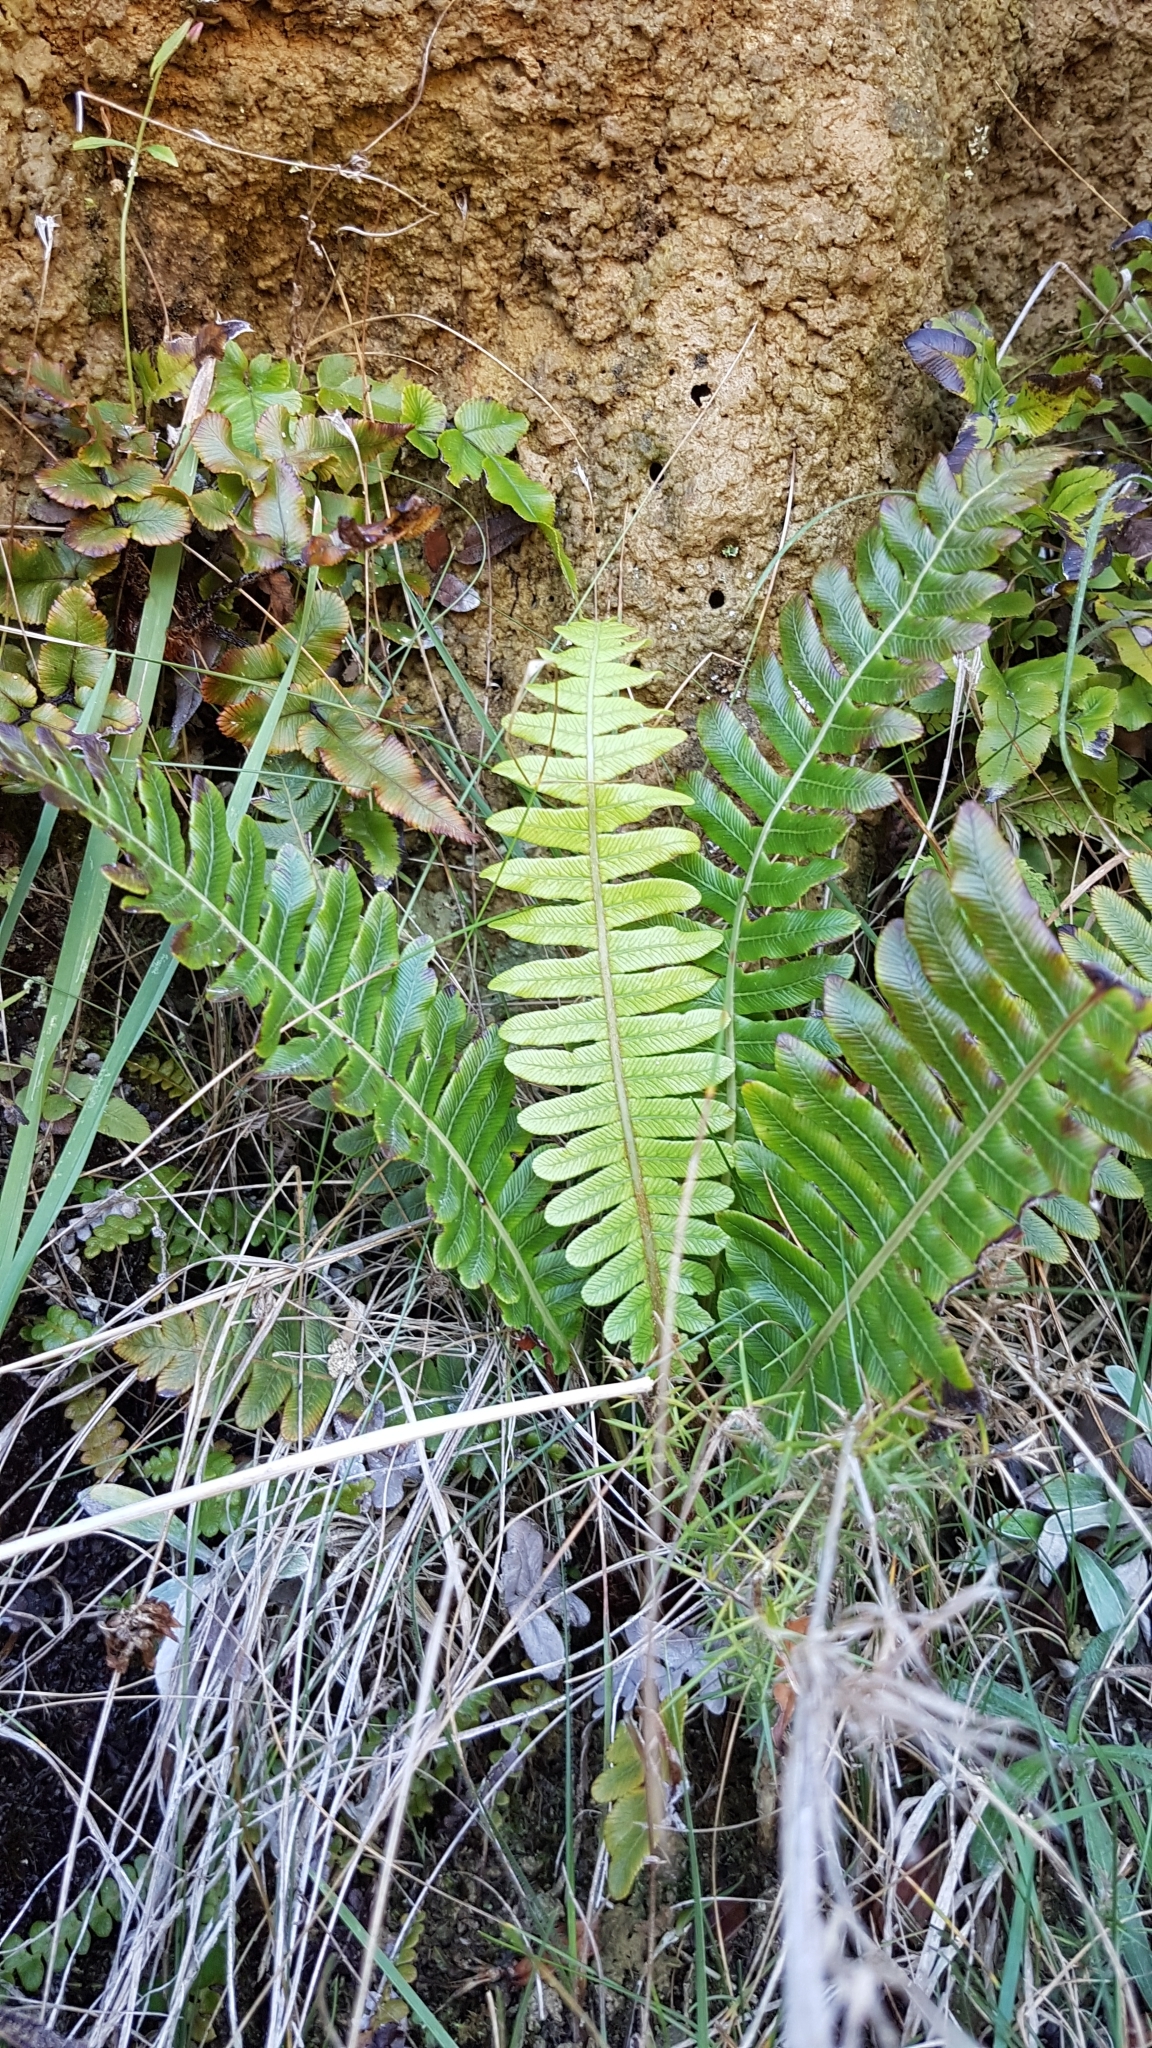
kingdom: Plantae
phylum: Tracheophyta
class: Polypodiopsida
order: Polypodiales
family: Blechnaceae
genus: Lomaria
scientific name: Lomaria discolor
